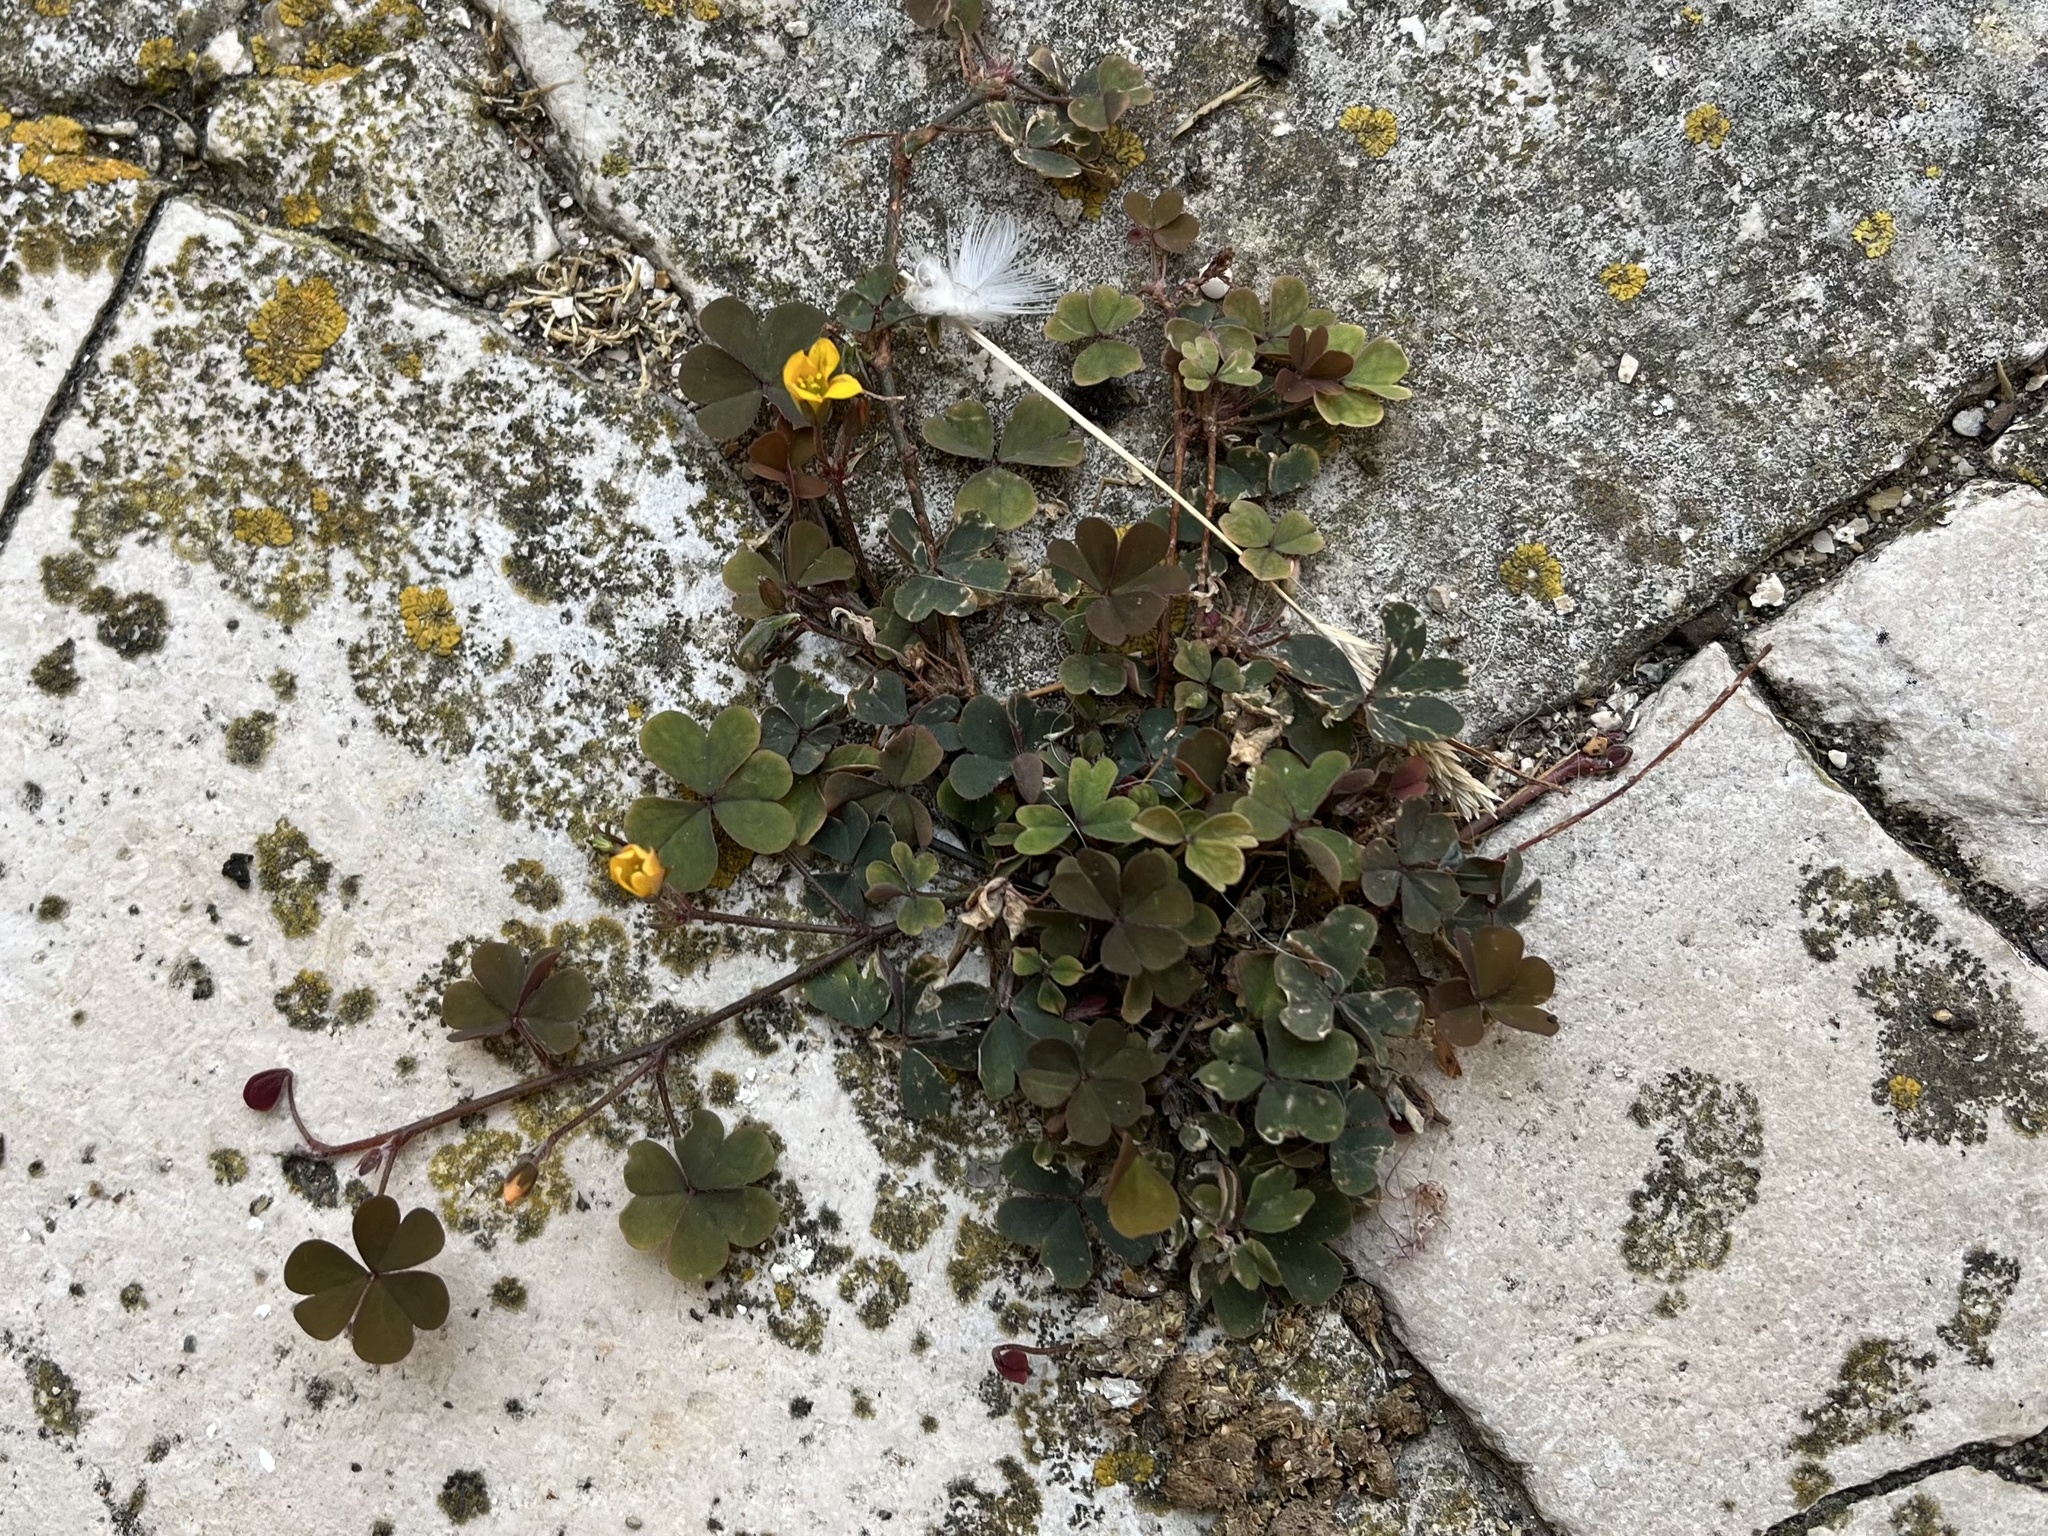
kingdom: Plantae
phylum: Tracheophyta
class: Magnoliopsida
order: Oxalidales
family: Oxalidaceae
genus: Oxalis
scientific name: Oxalis corniculata
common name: Procumbent yellow-sorrel
